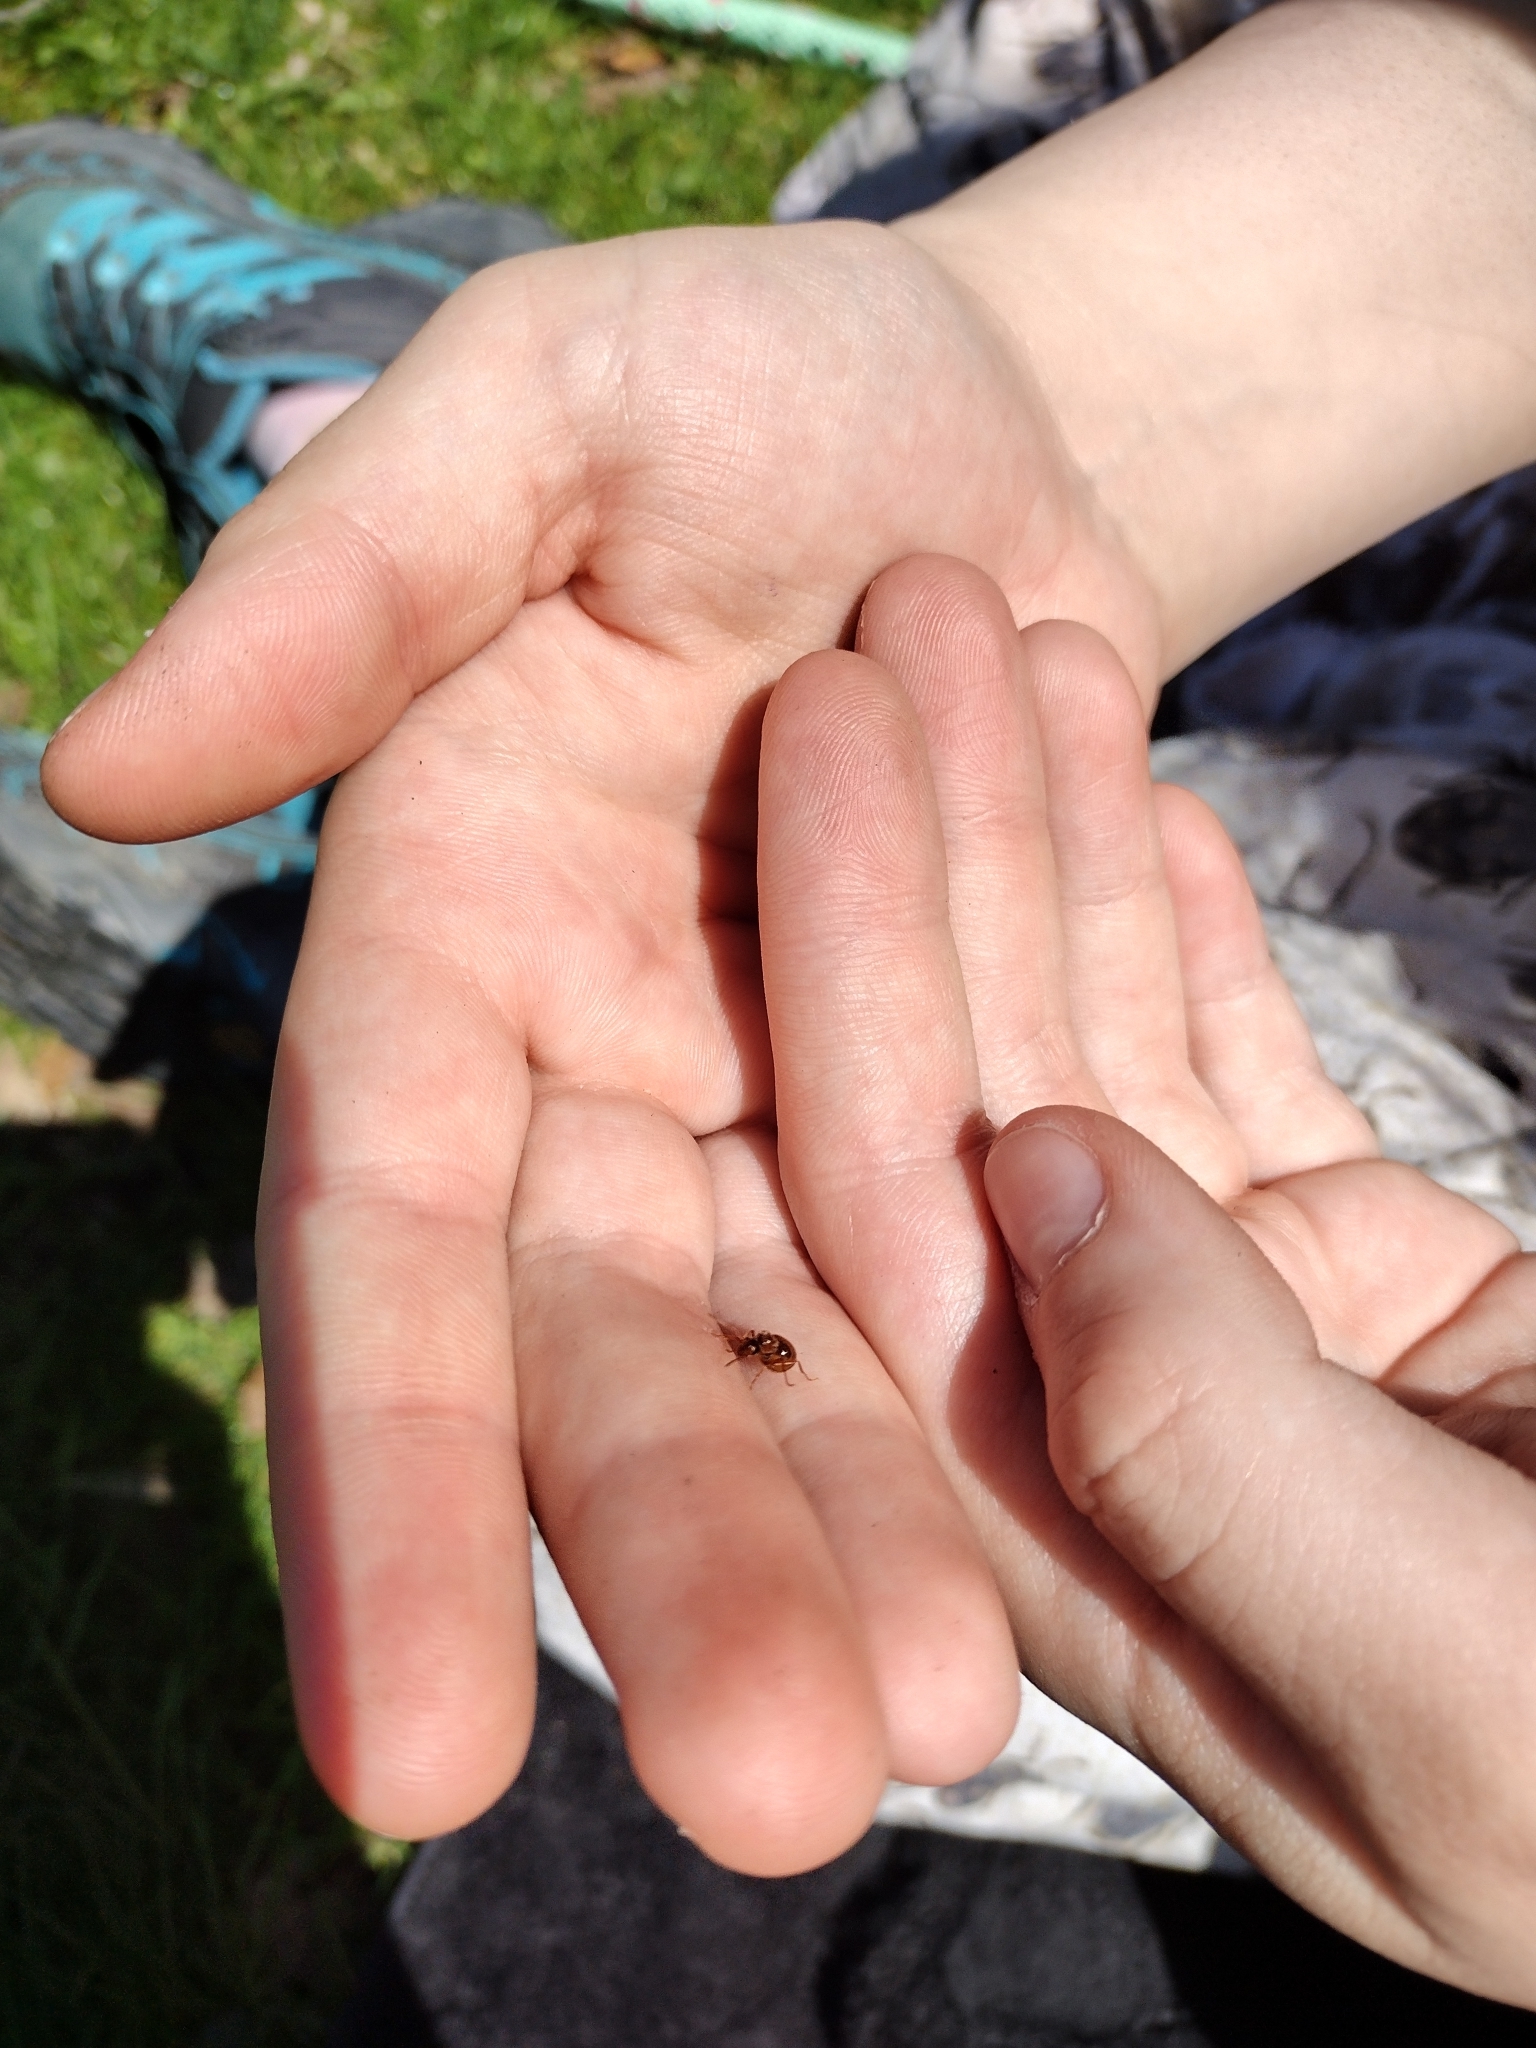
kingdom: Animalia
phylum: Arthropoda
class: Insecta
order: Hymenoptera
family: Formicidae
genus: Prenolepis
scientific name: Prenolepis imparis
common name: Small honey ant
